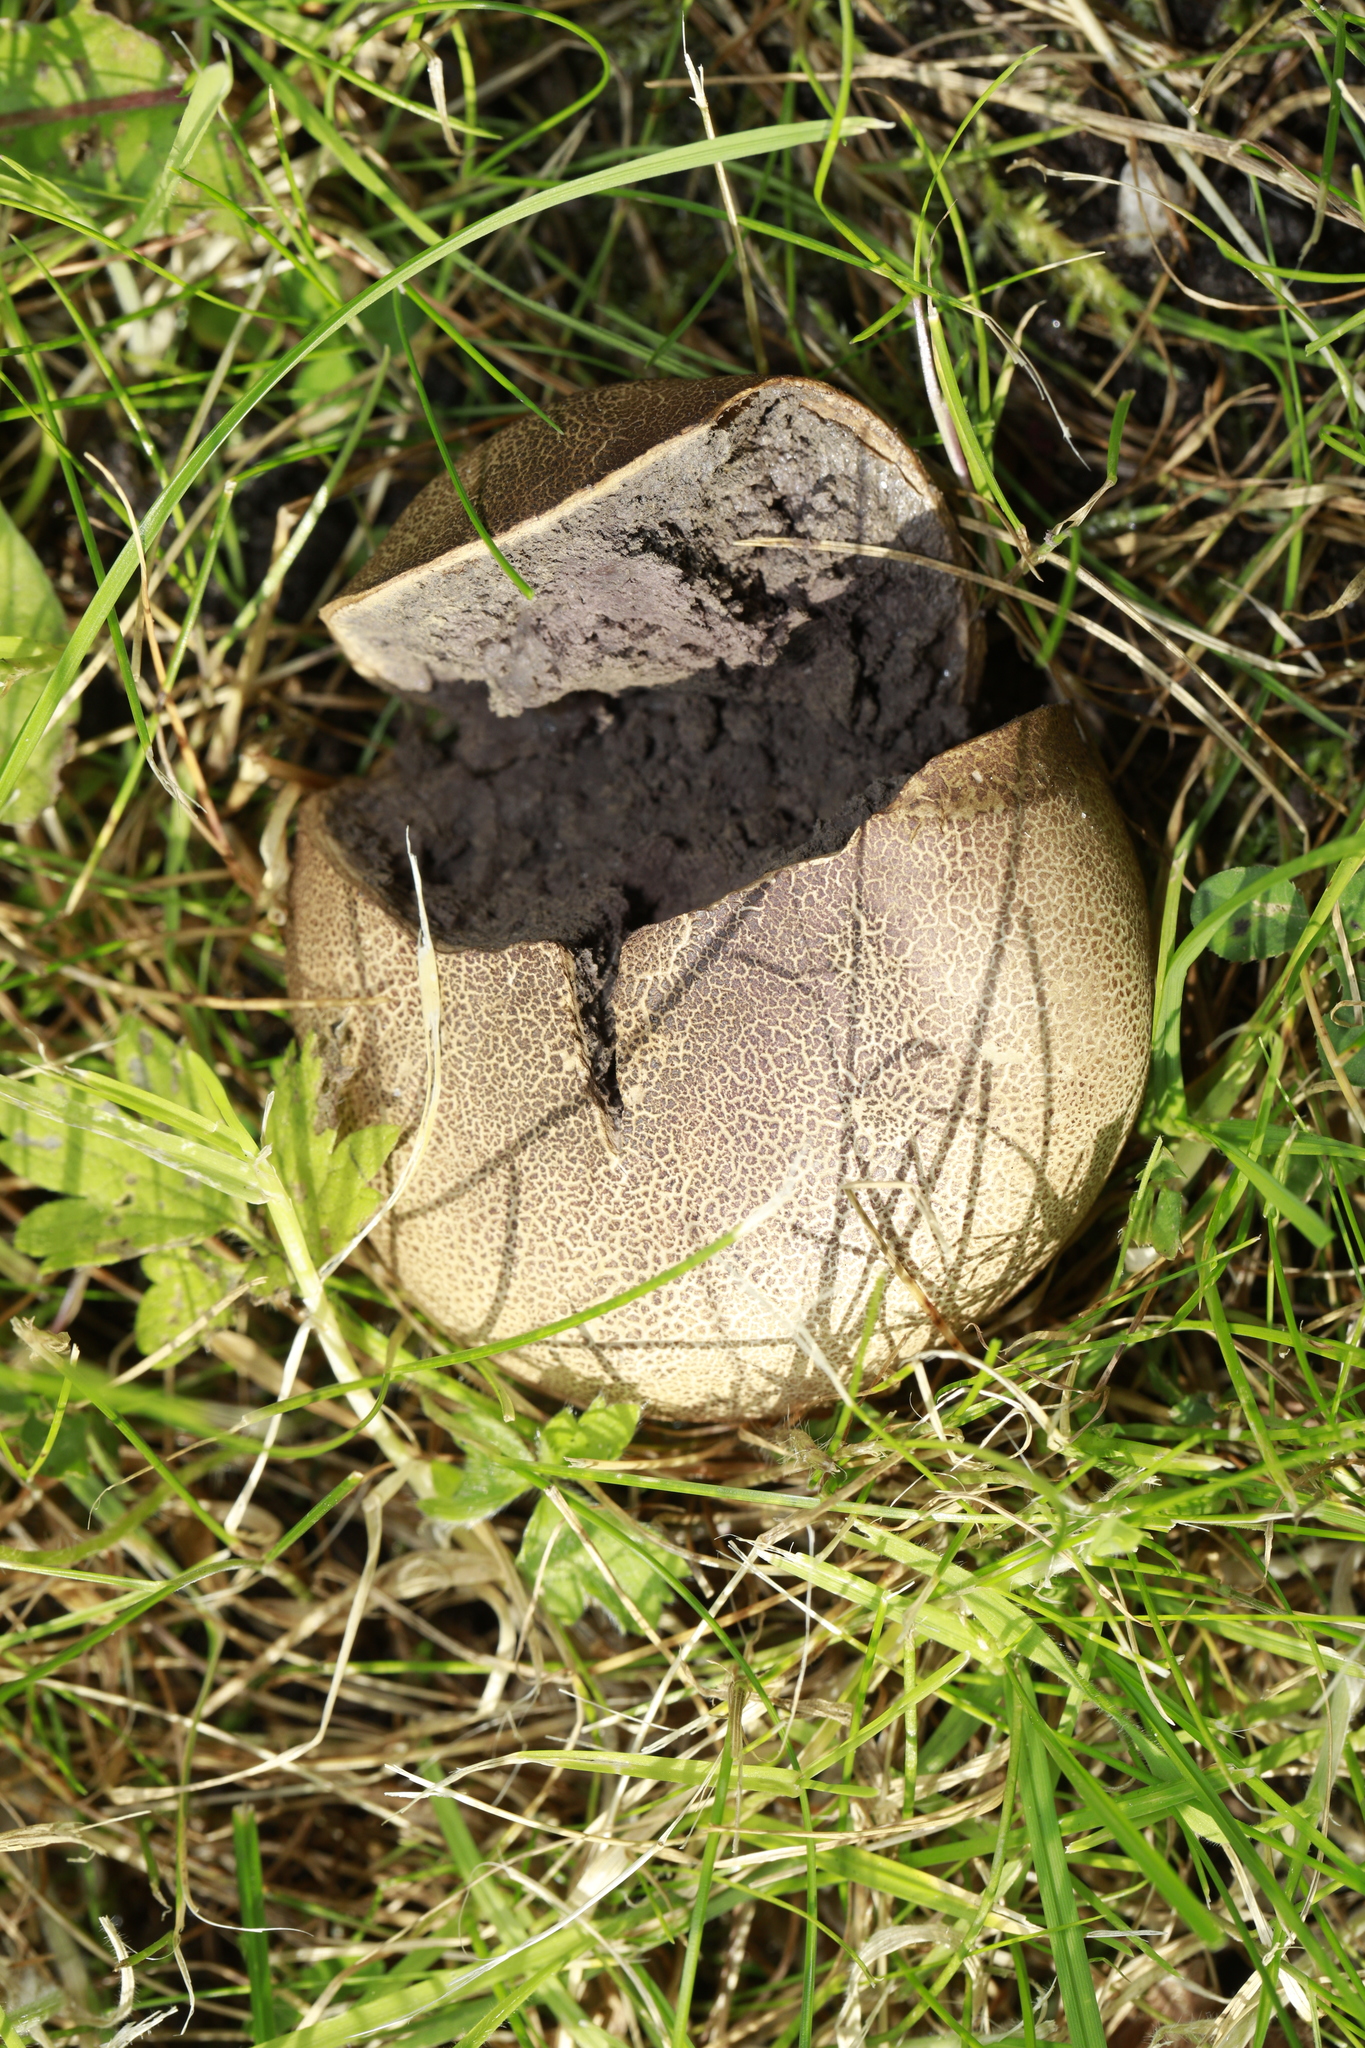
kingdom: Fungi
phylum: Basidiomycota
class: Agaricomycetes
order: Boletales
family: Sclerodermataceae
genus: Scleroderma
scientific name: Scleroderma citrinum
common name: Common earthball
